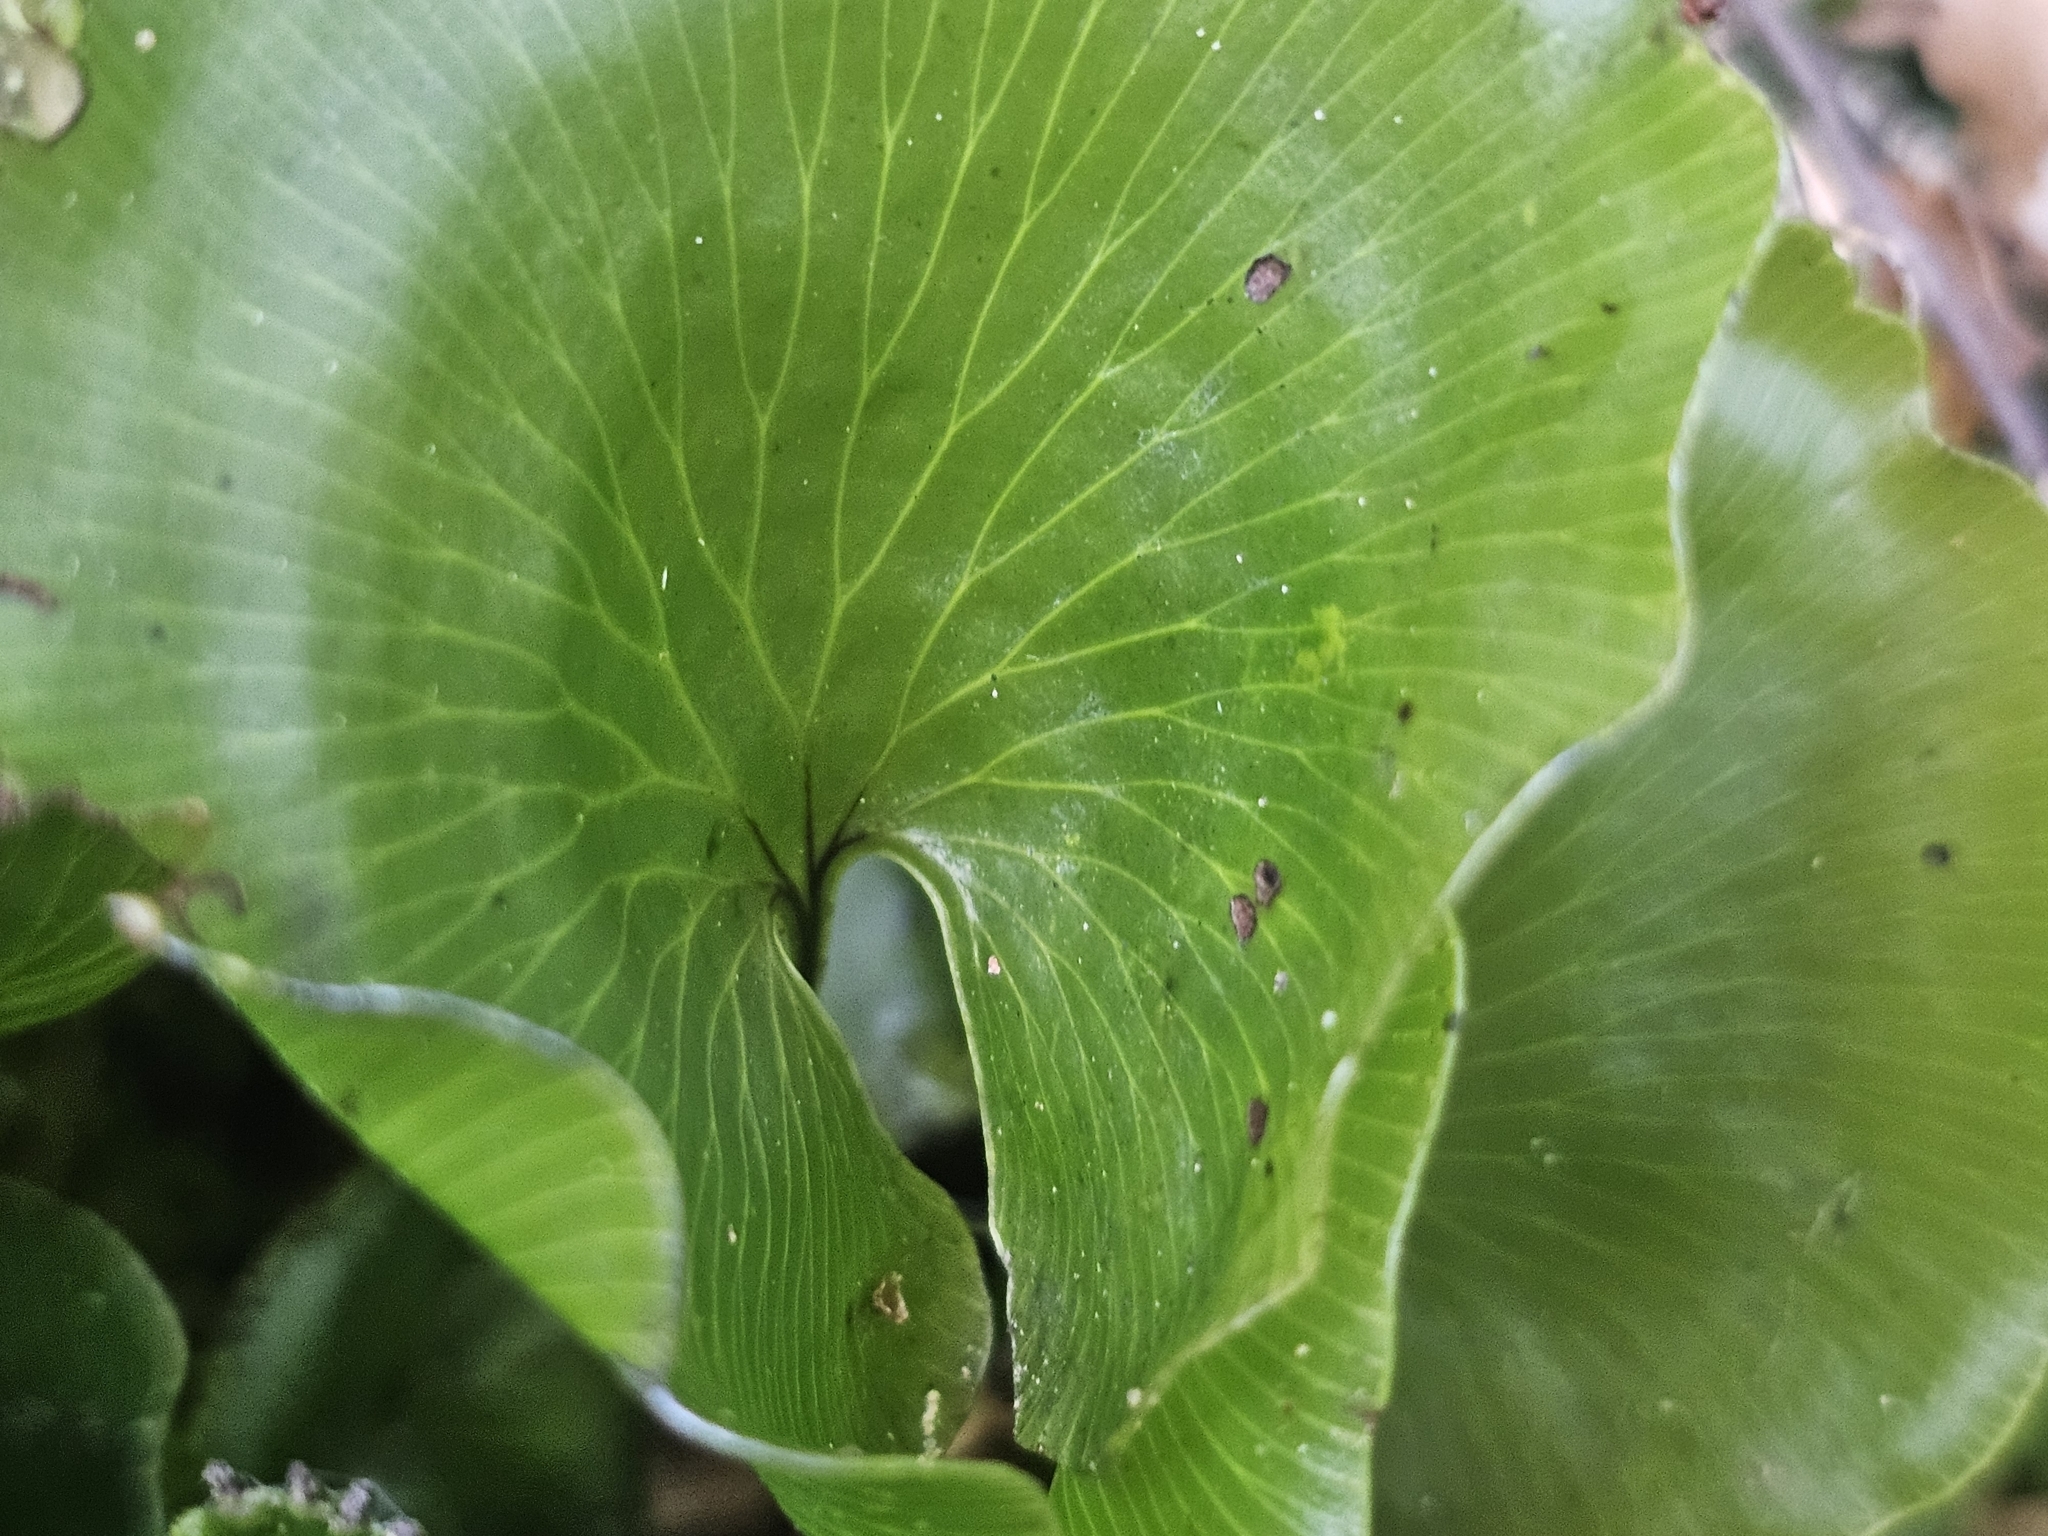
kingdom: Plantae
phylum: Tracheophyta
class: Polypodiopsida
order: Hymenophyllales
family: Hymenophyllaceae
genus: Hymenophyllum
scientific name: Hymenophyllum nephrophyllum
